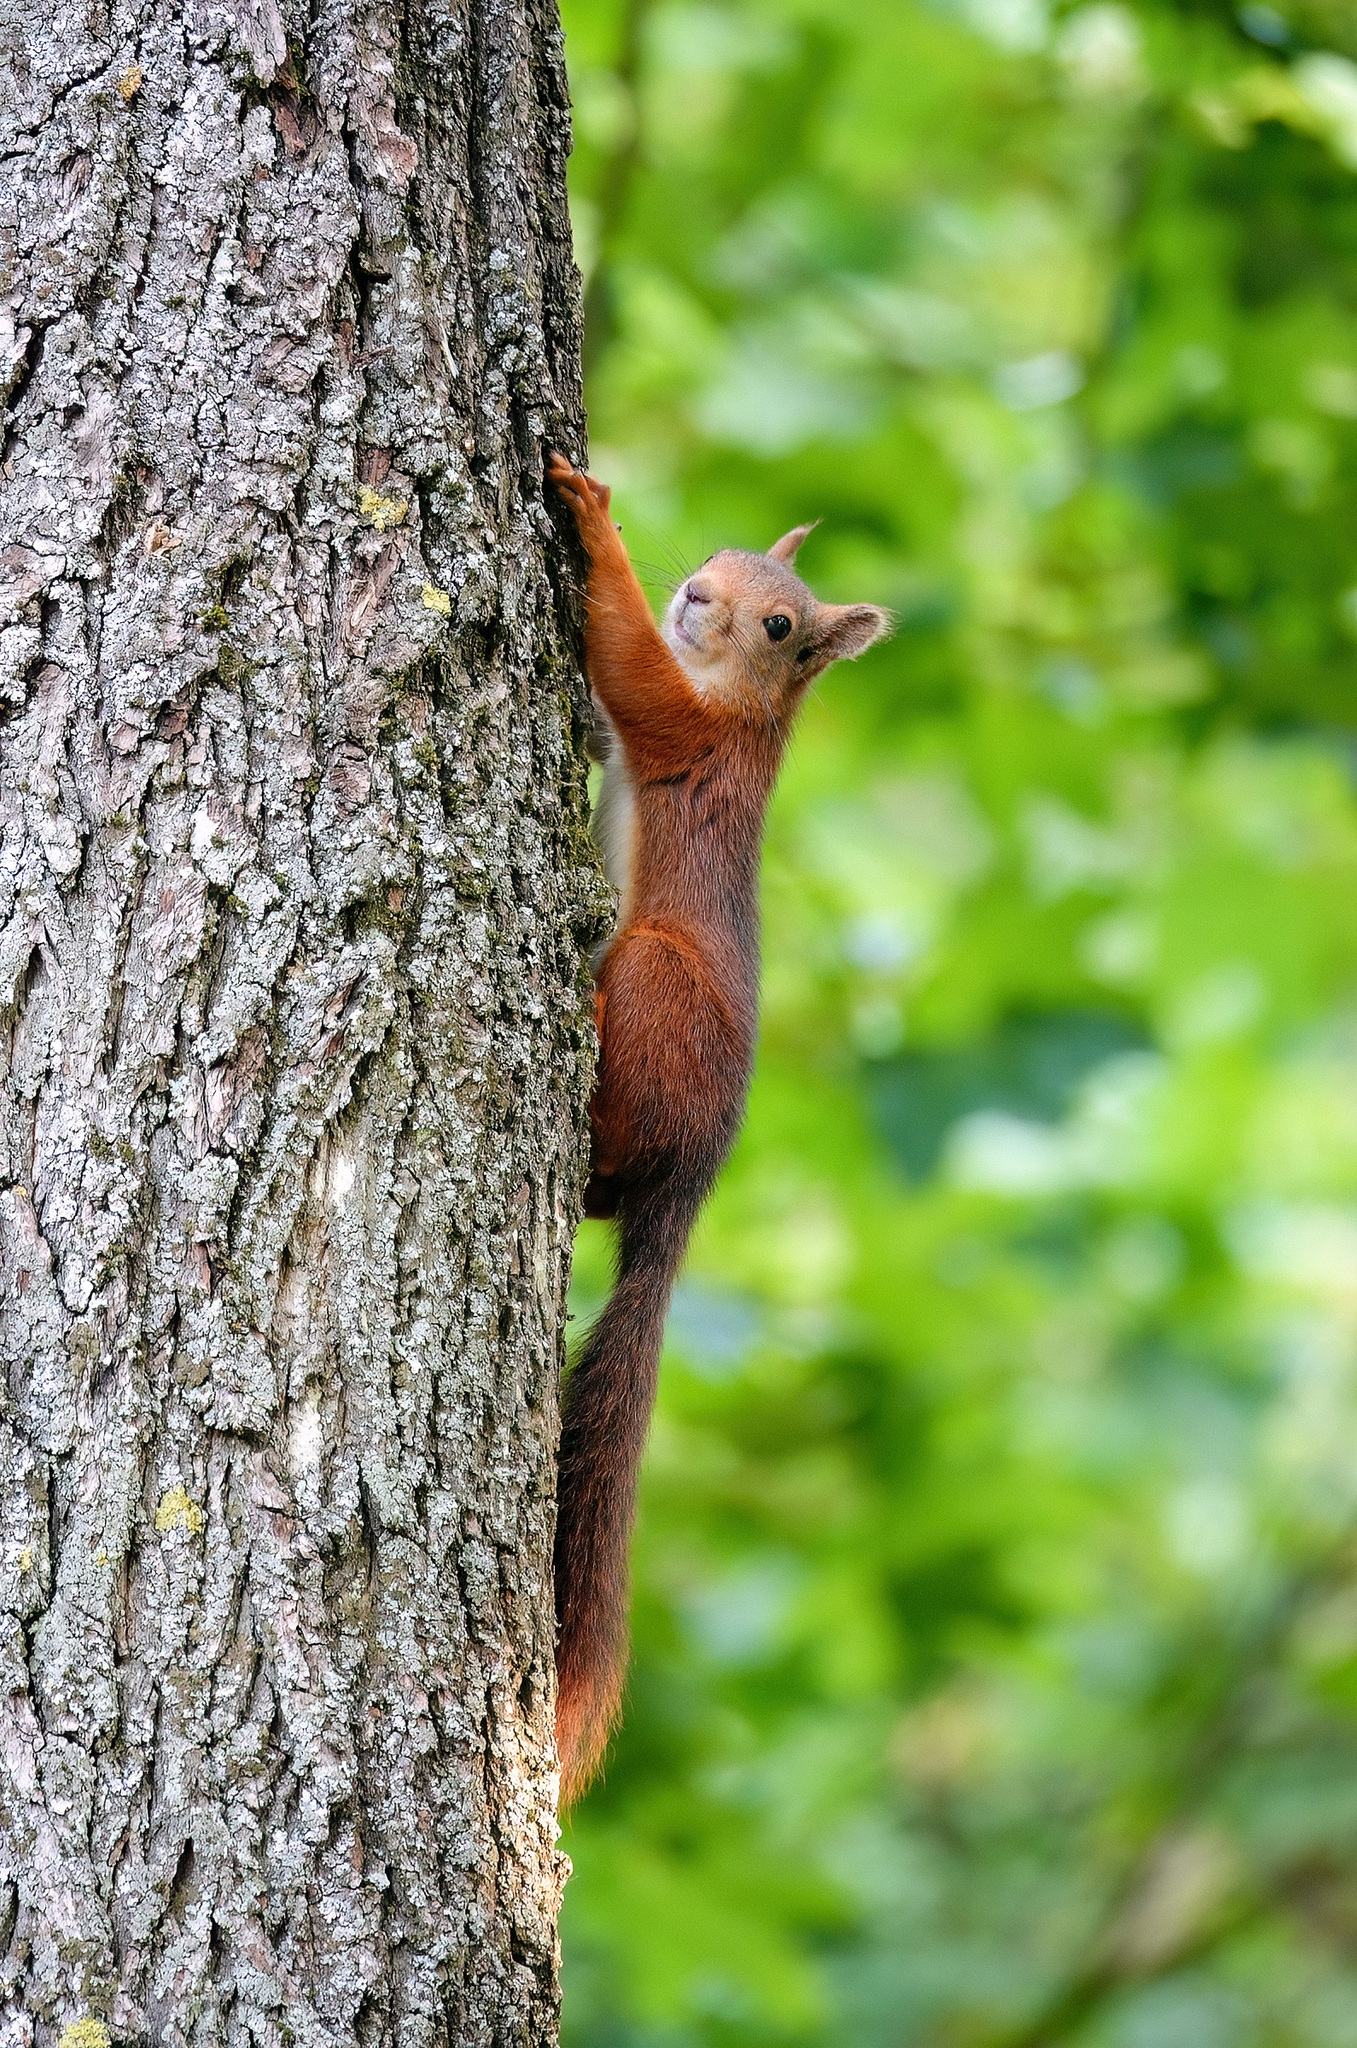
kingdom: Animalia
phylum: Chordata
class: Mammalia
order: Rodentia
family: Sciuridae
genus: Sciurus
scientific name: Sciurus vulgaris
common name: Eurasian red squirrel
